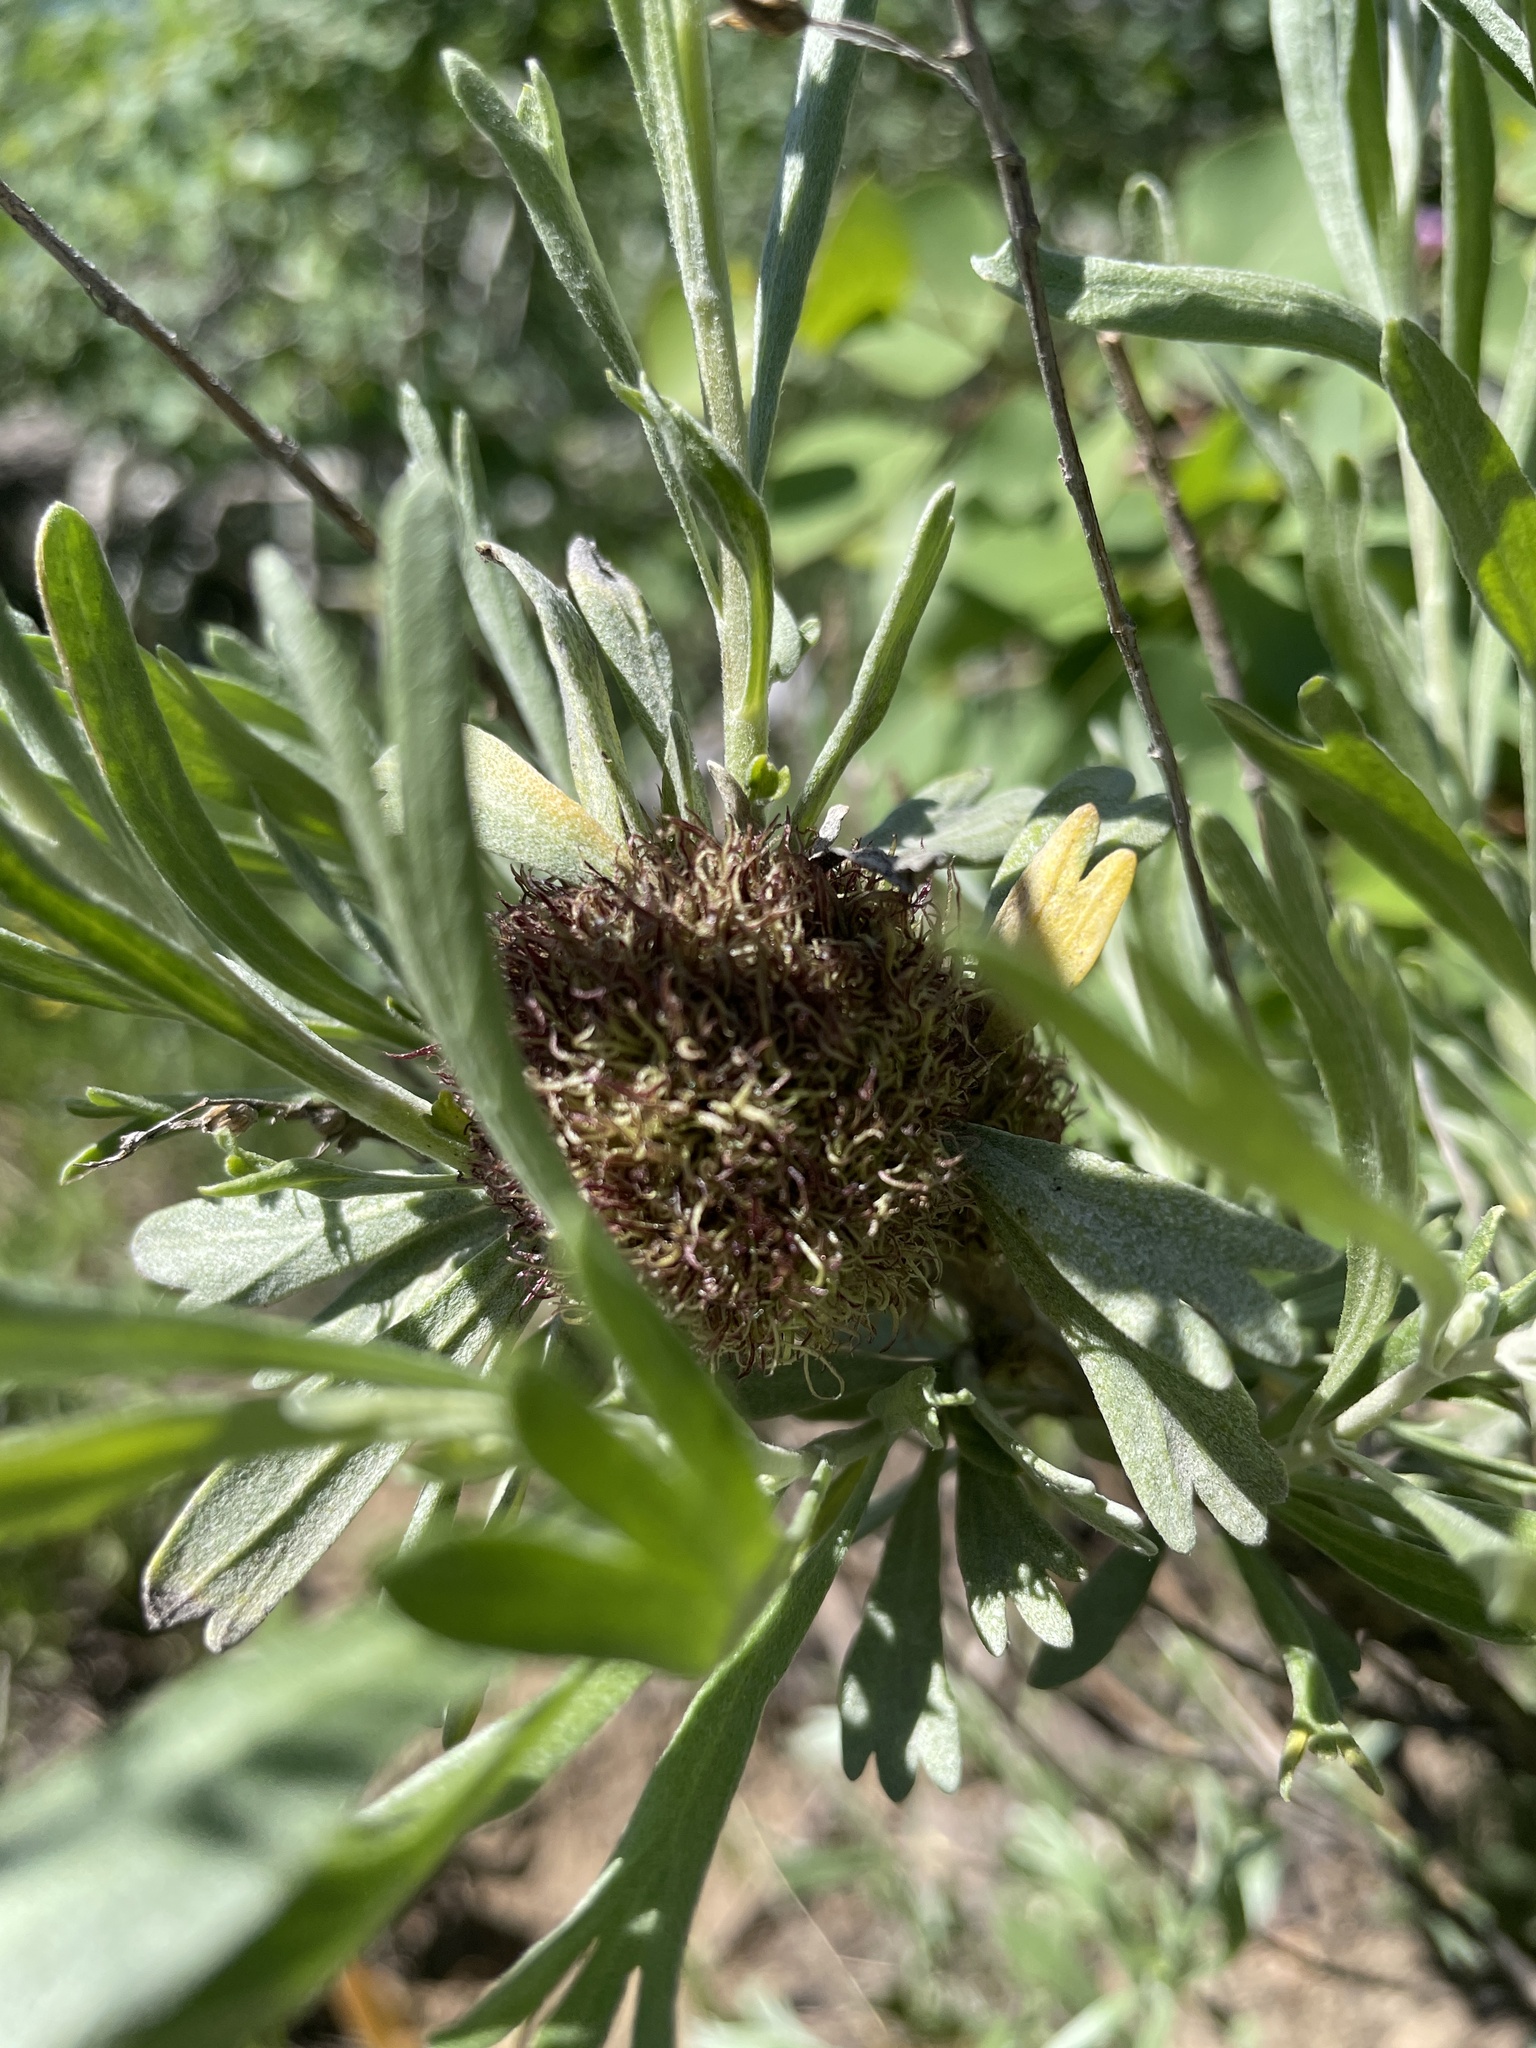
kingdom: Animalia
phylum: Arthropoda
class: Insecta
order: Diptera
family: Cecidomyiidae
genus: Rhopalomyia
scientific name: Rhopalomyia medusa
